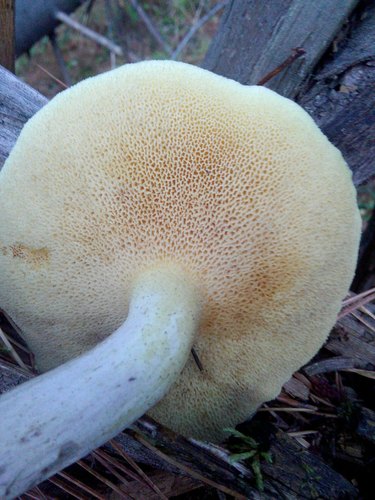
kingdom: Fungi
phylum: Basidiomycota
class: Agaricomycetes
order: Boletales
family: Suillaceae
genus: Suillus
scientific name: Suillus placidus
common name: Slippery white bolete
